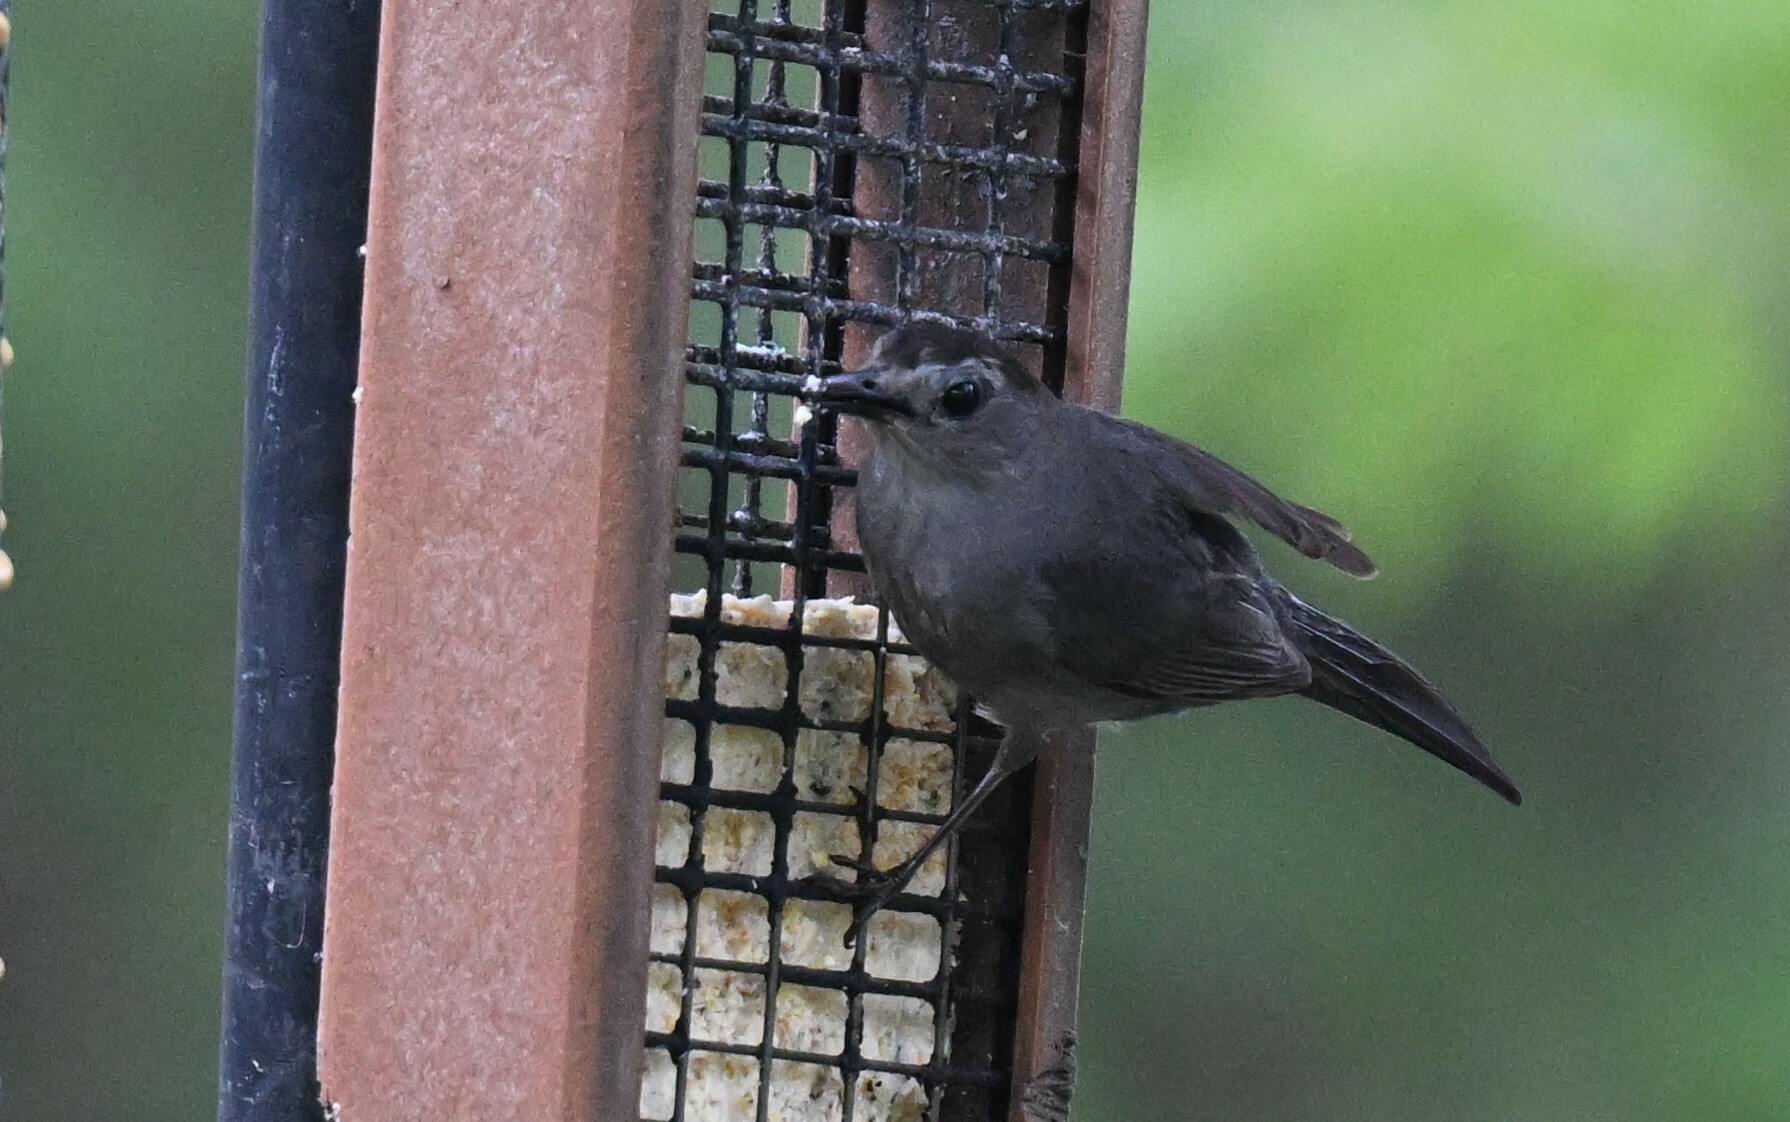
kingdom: Animalia
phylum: Chordata
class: Aves
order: Passeriformes
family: Mimidae
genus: Dumetella
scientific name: Dumetella carolinensis
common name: Gray catbird
